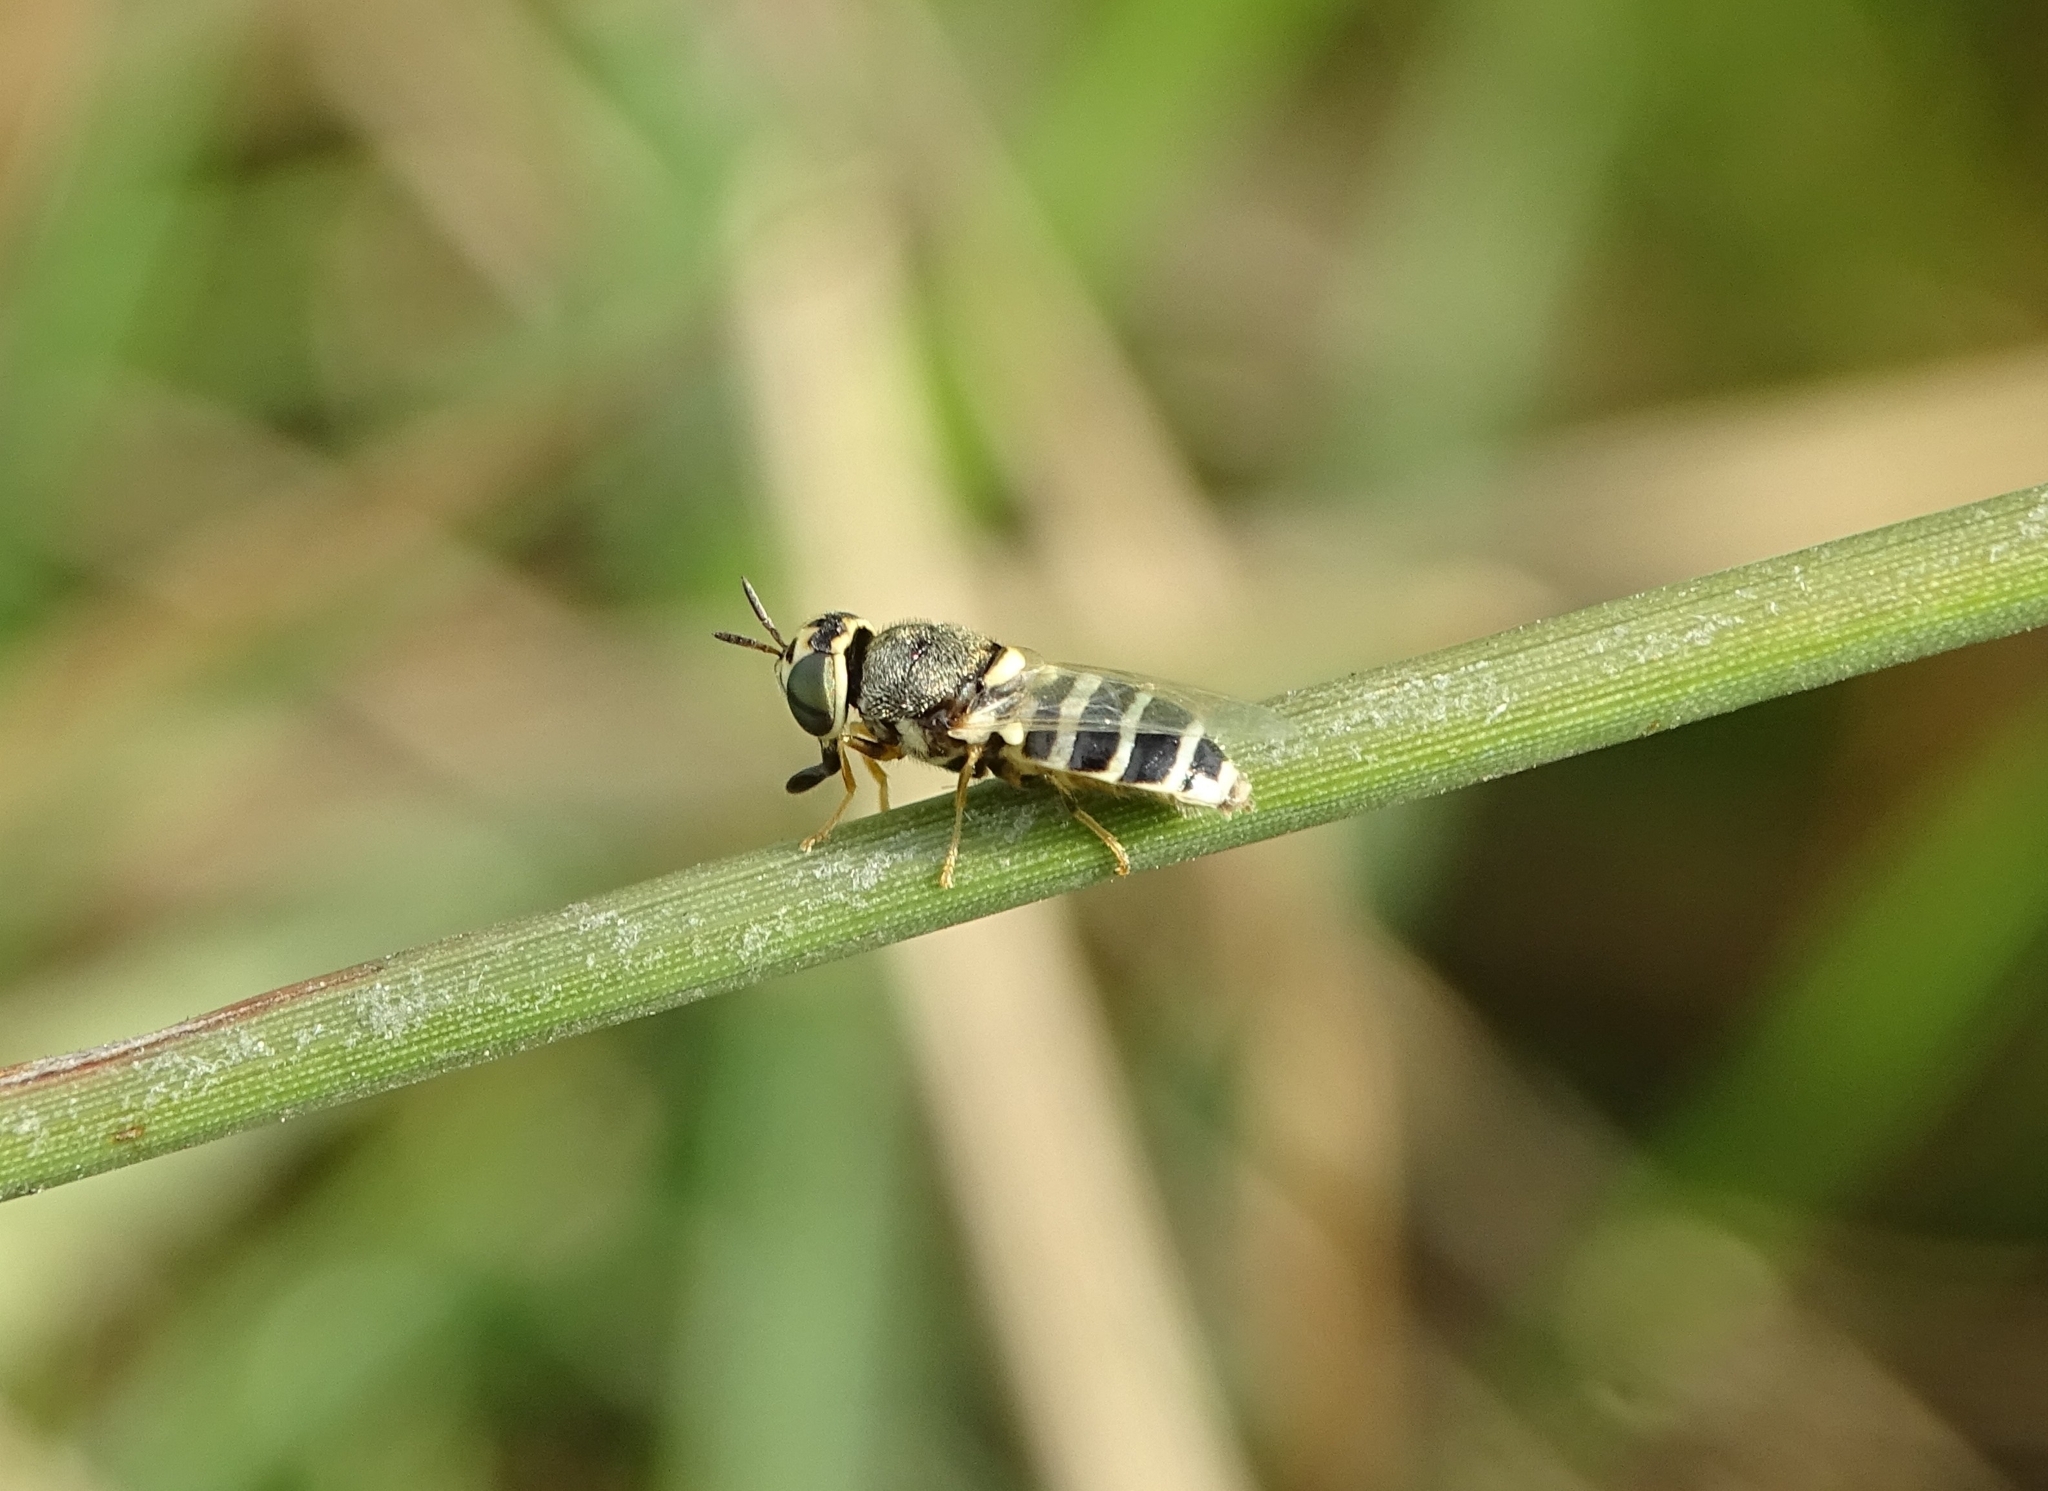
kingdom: Animalia
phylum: Arthropoda
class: Insecta
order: Diptera
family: Stratiomyidae
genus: Oplodontha
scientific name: Oplodontha minuta
